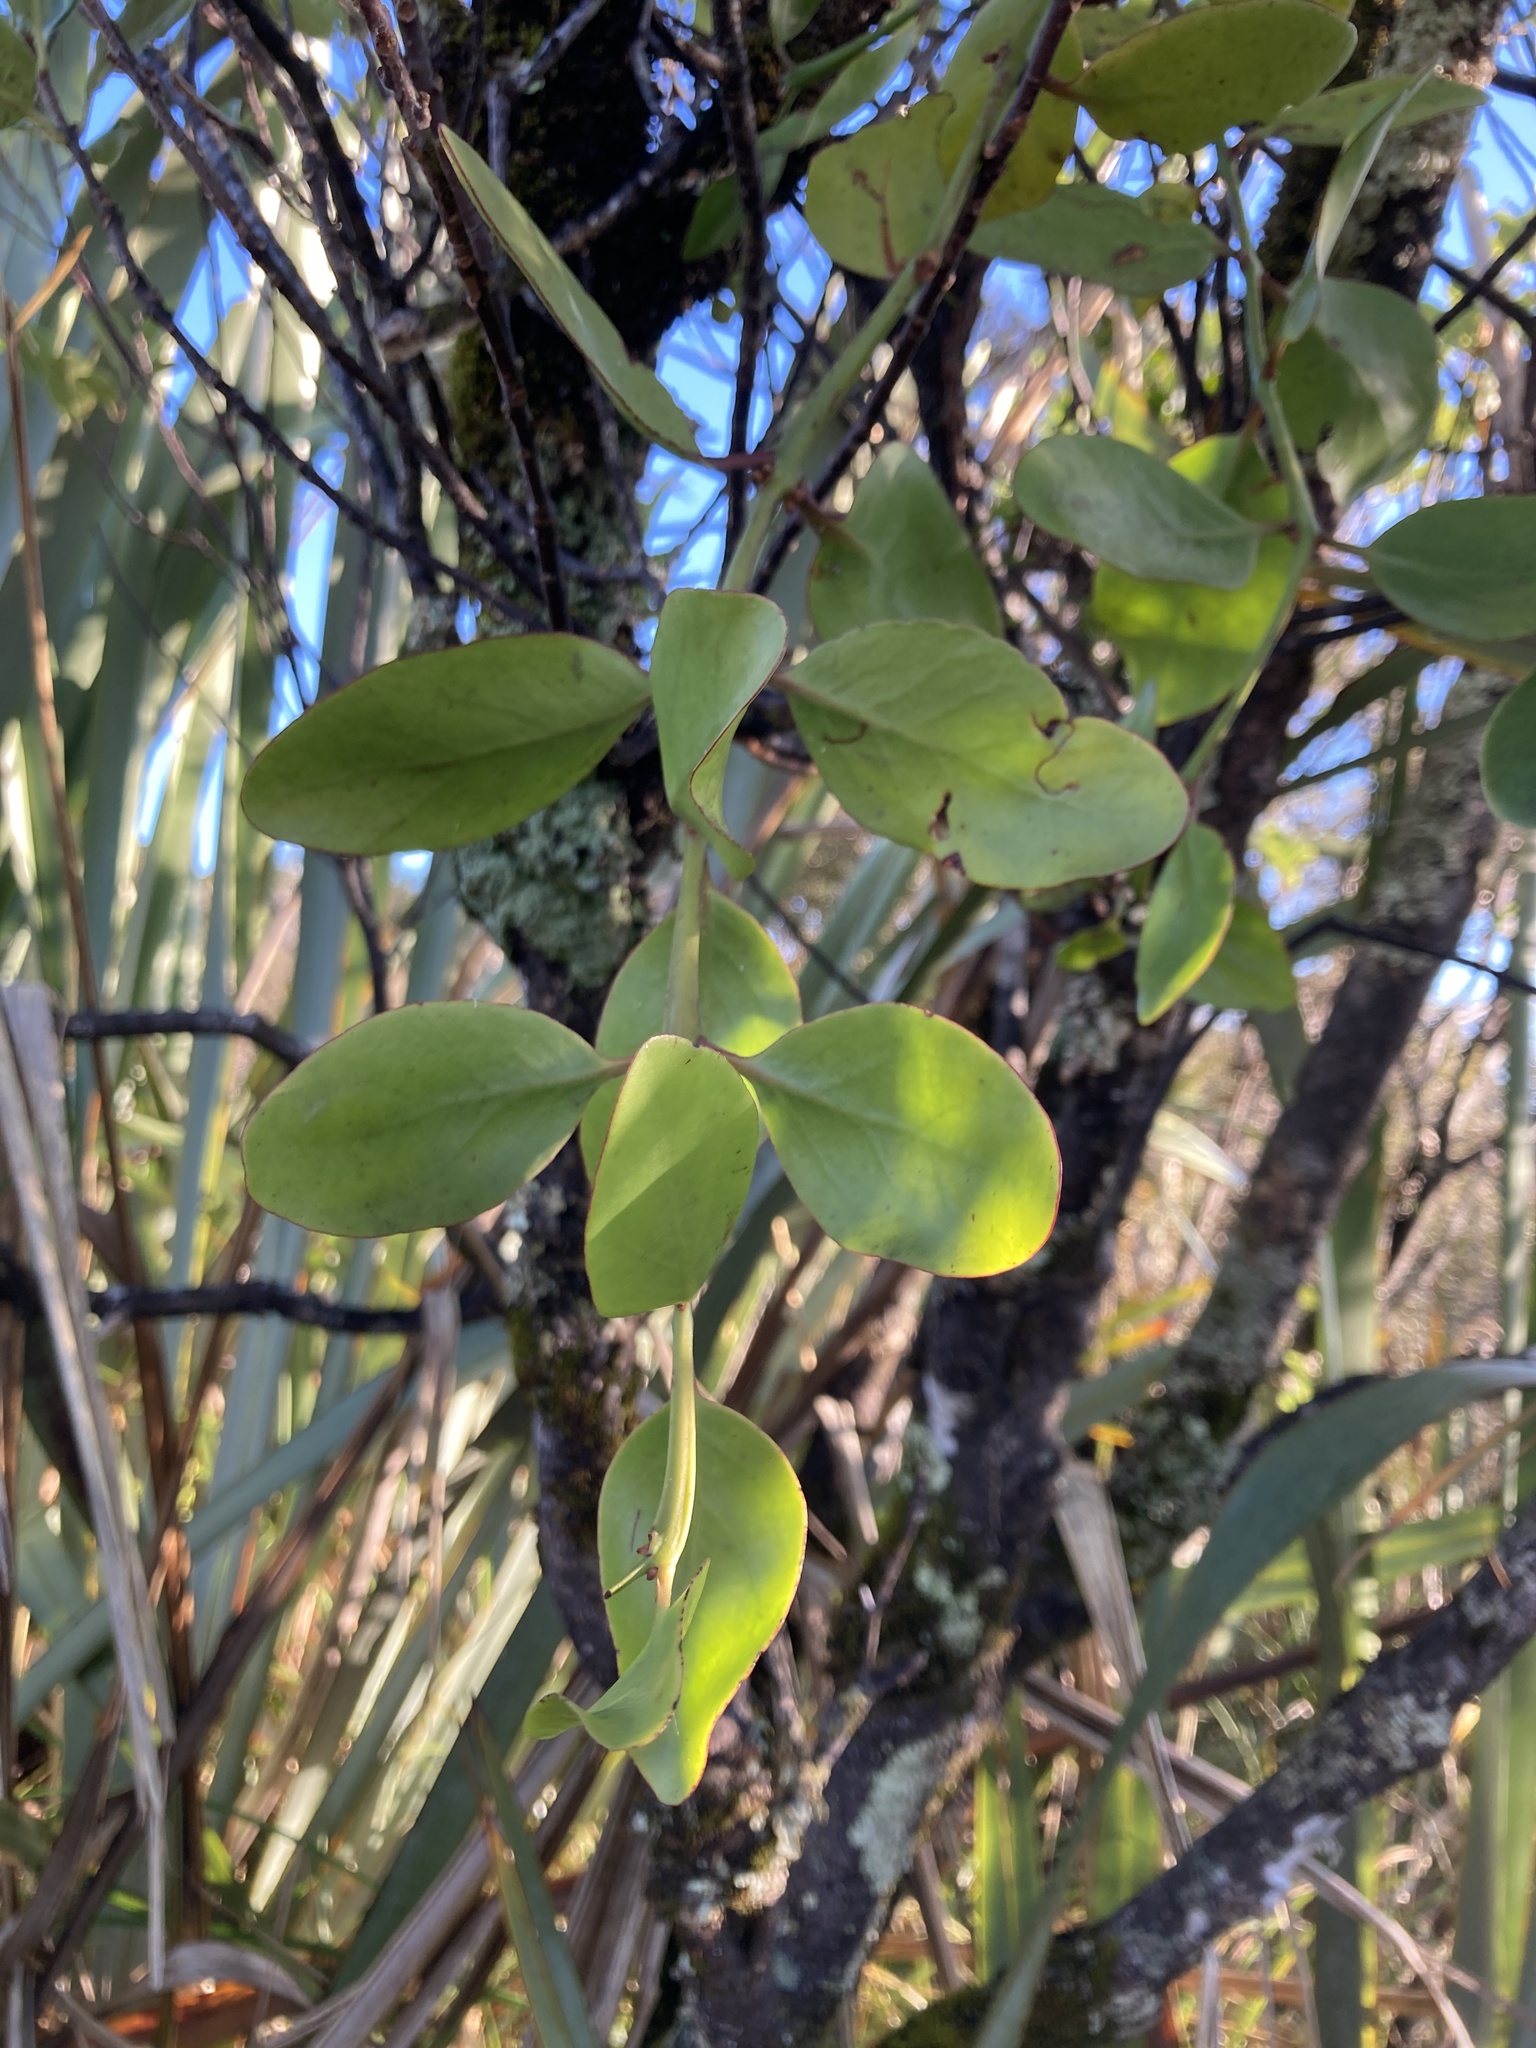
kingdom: Plantae
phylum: Tracheophyta
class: Magnoliopsida
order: Santalales
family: Loranthaceae
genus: Ileostylus
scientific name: Ileostylus micranthus
